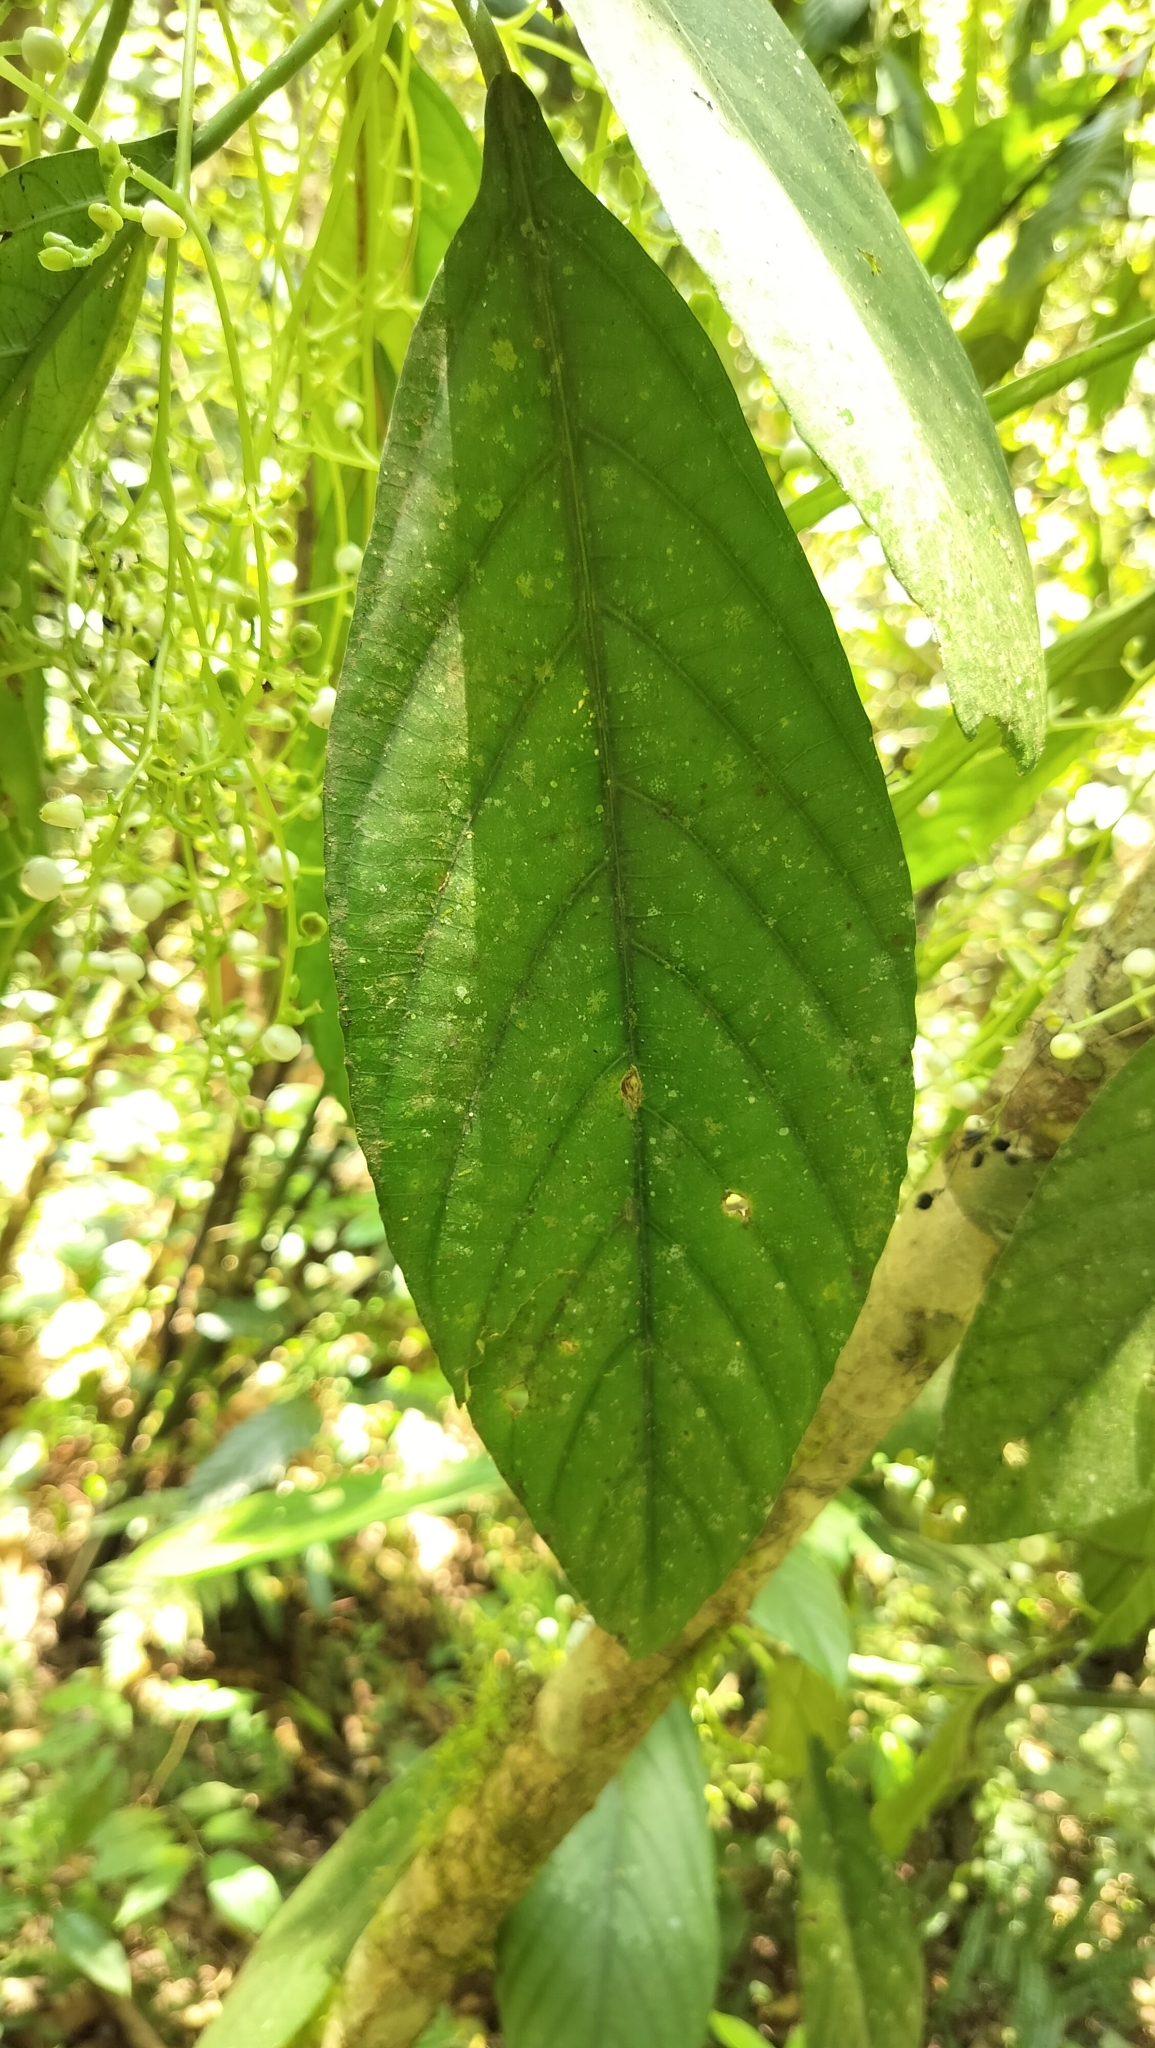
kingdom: Plantae
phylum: Tracheophyta
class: Magnoliopsida
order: Rosales
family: Urticaceae
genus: Dendrocnide
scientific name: Dendrocnide sinuata
